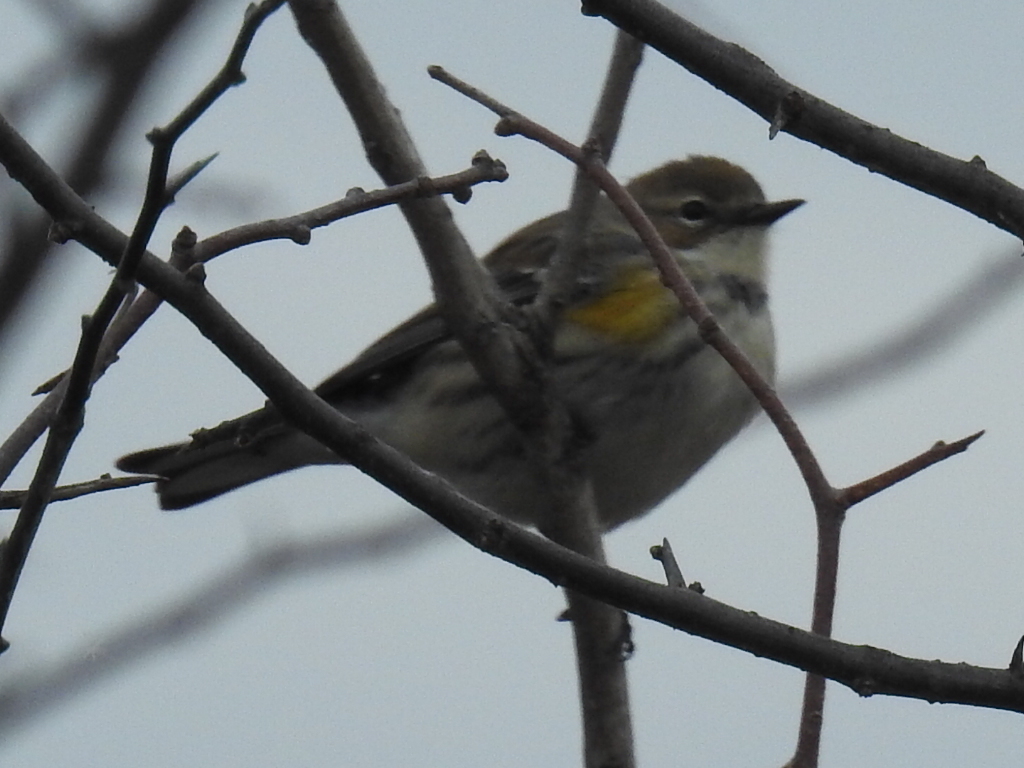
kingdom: Animalia
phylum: Chordata
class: Aves
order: Passeriformes
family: Parulidae
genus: Setophaga
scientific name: Setophaga coronata
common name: Myrtle warbler
